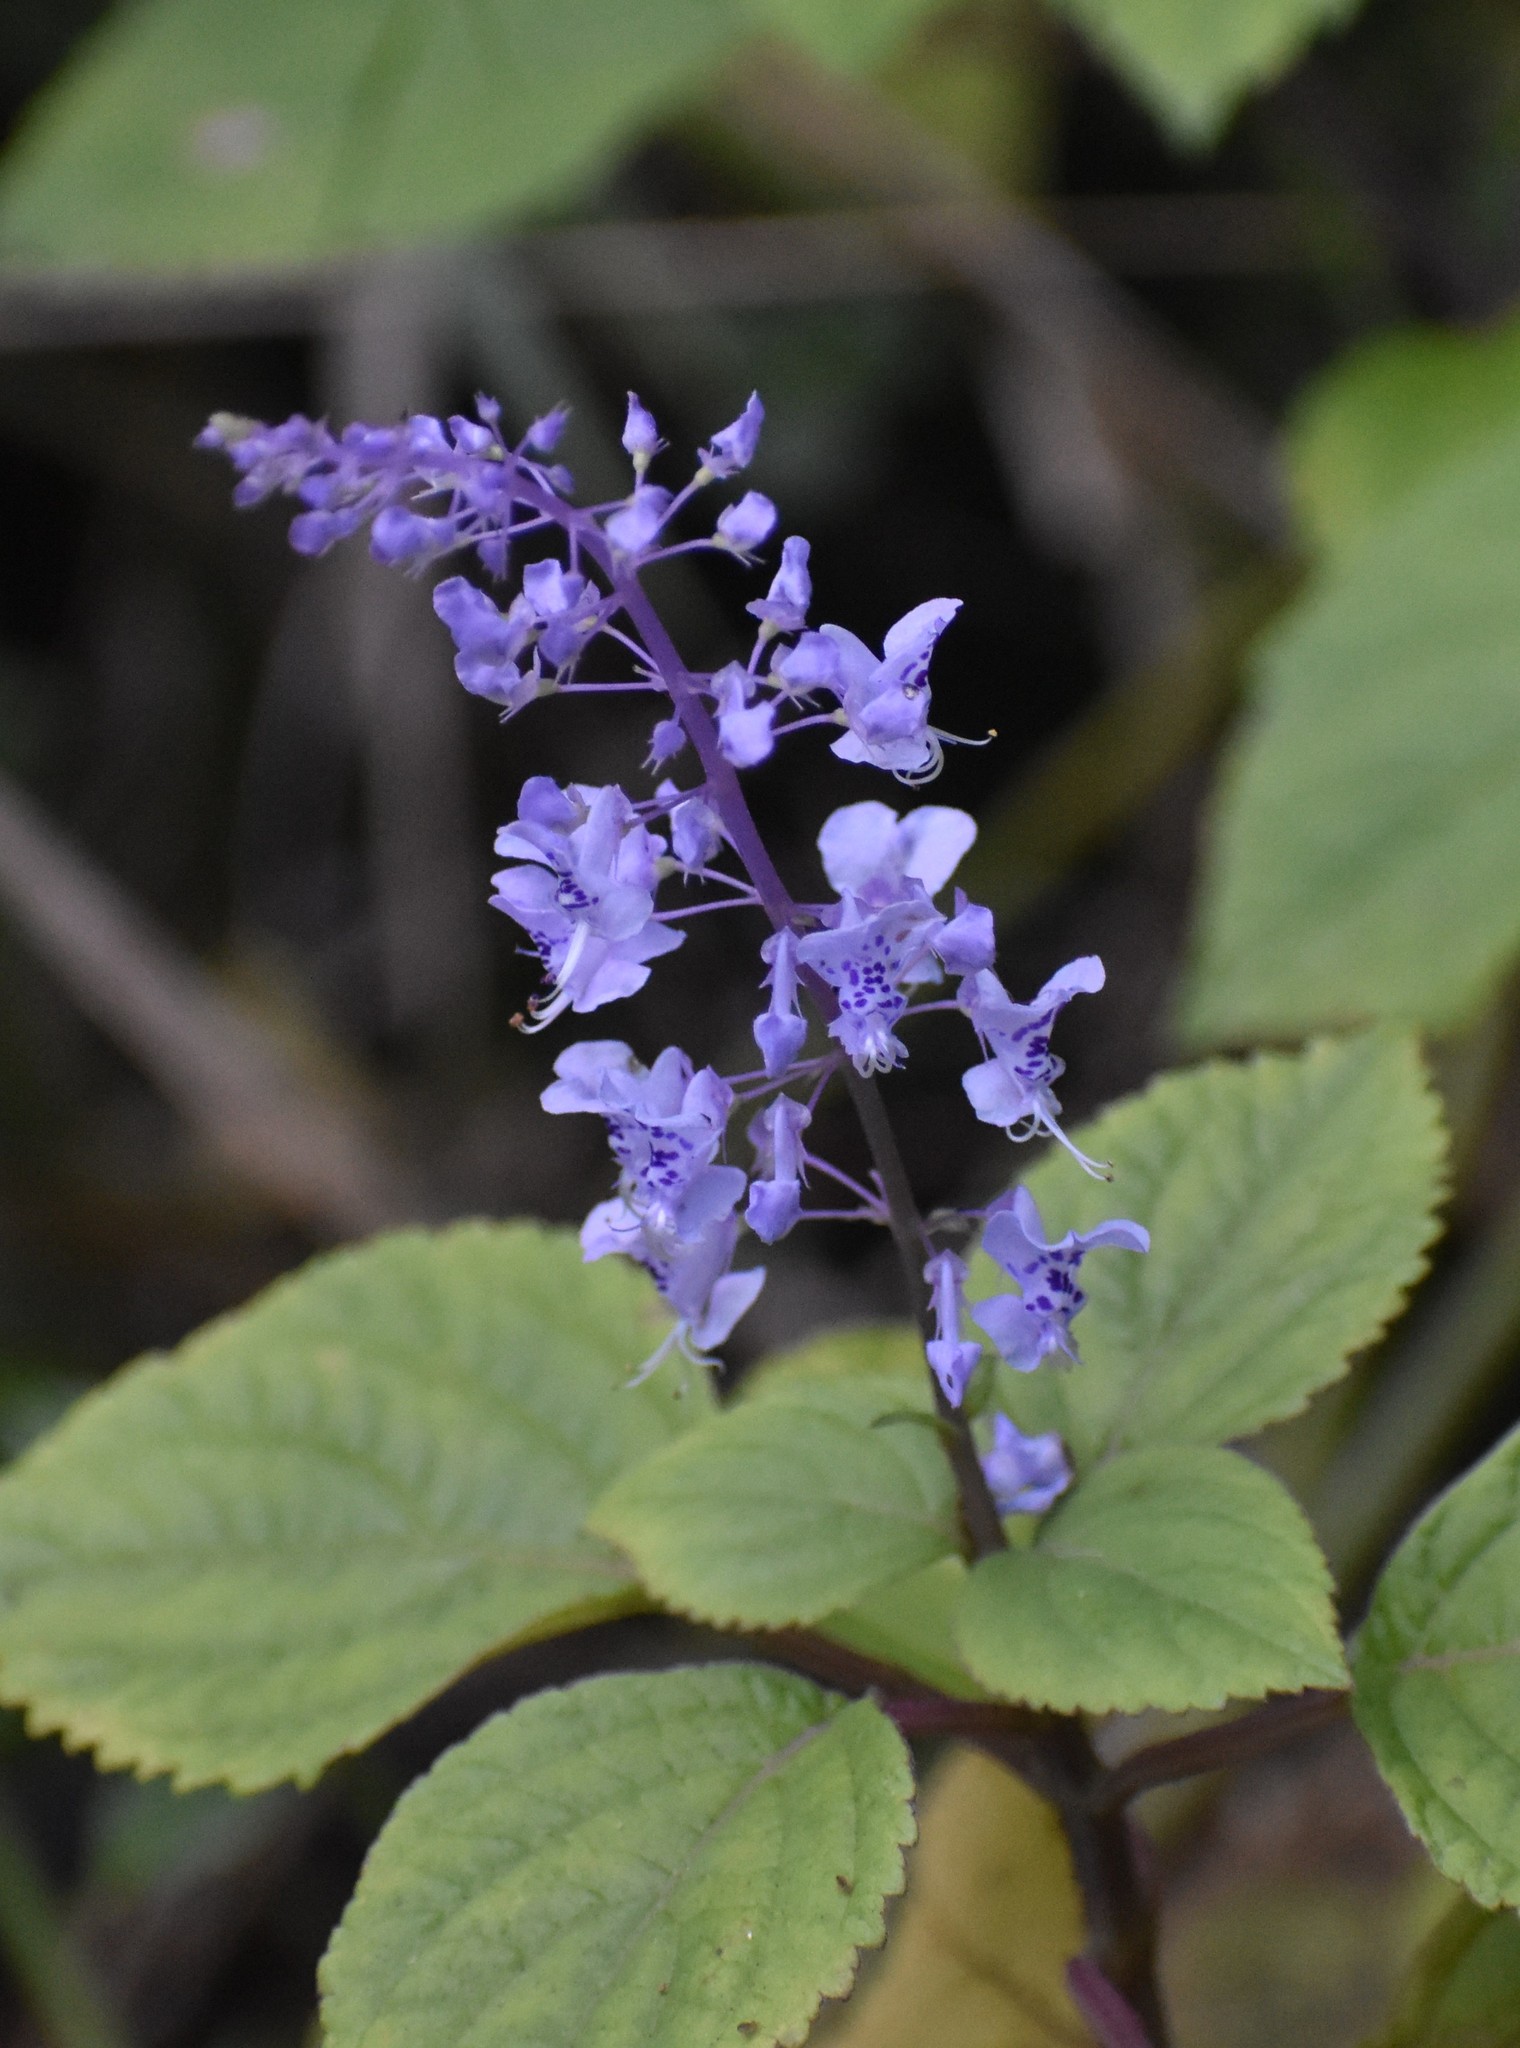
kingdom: Plantae
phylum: Tracheophyta
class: Magnoliopsida
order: Lamiales
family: Lamiaceae
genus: Plectranthus
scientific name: Plectranthus fruticosus
